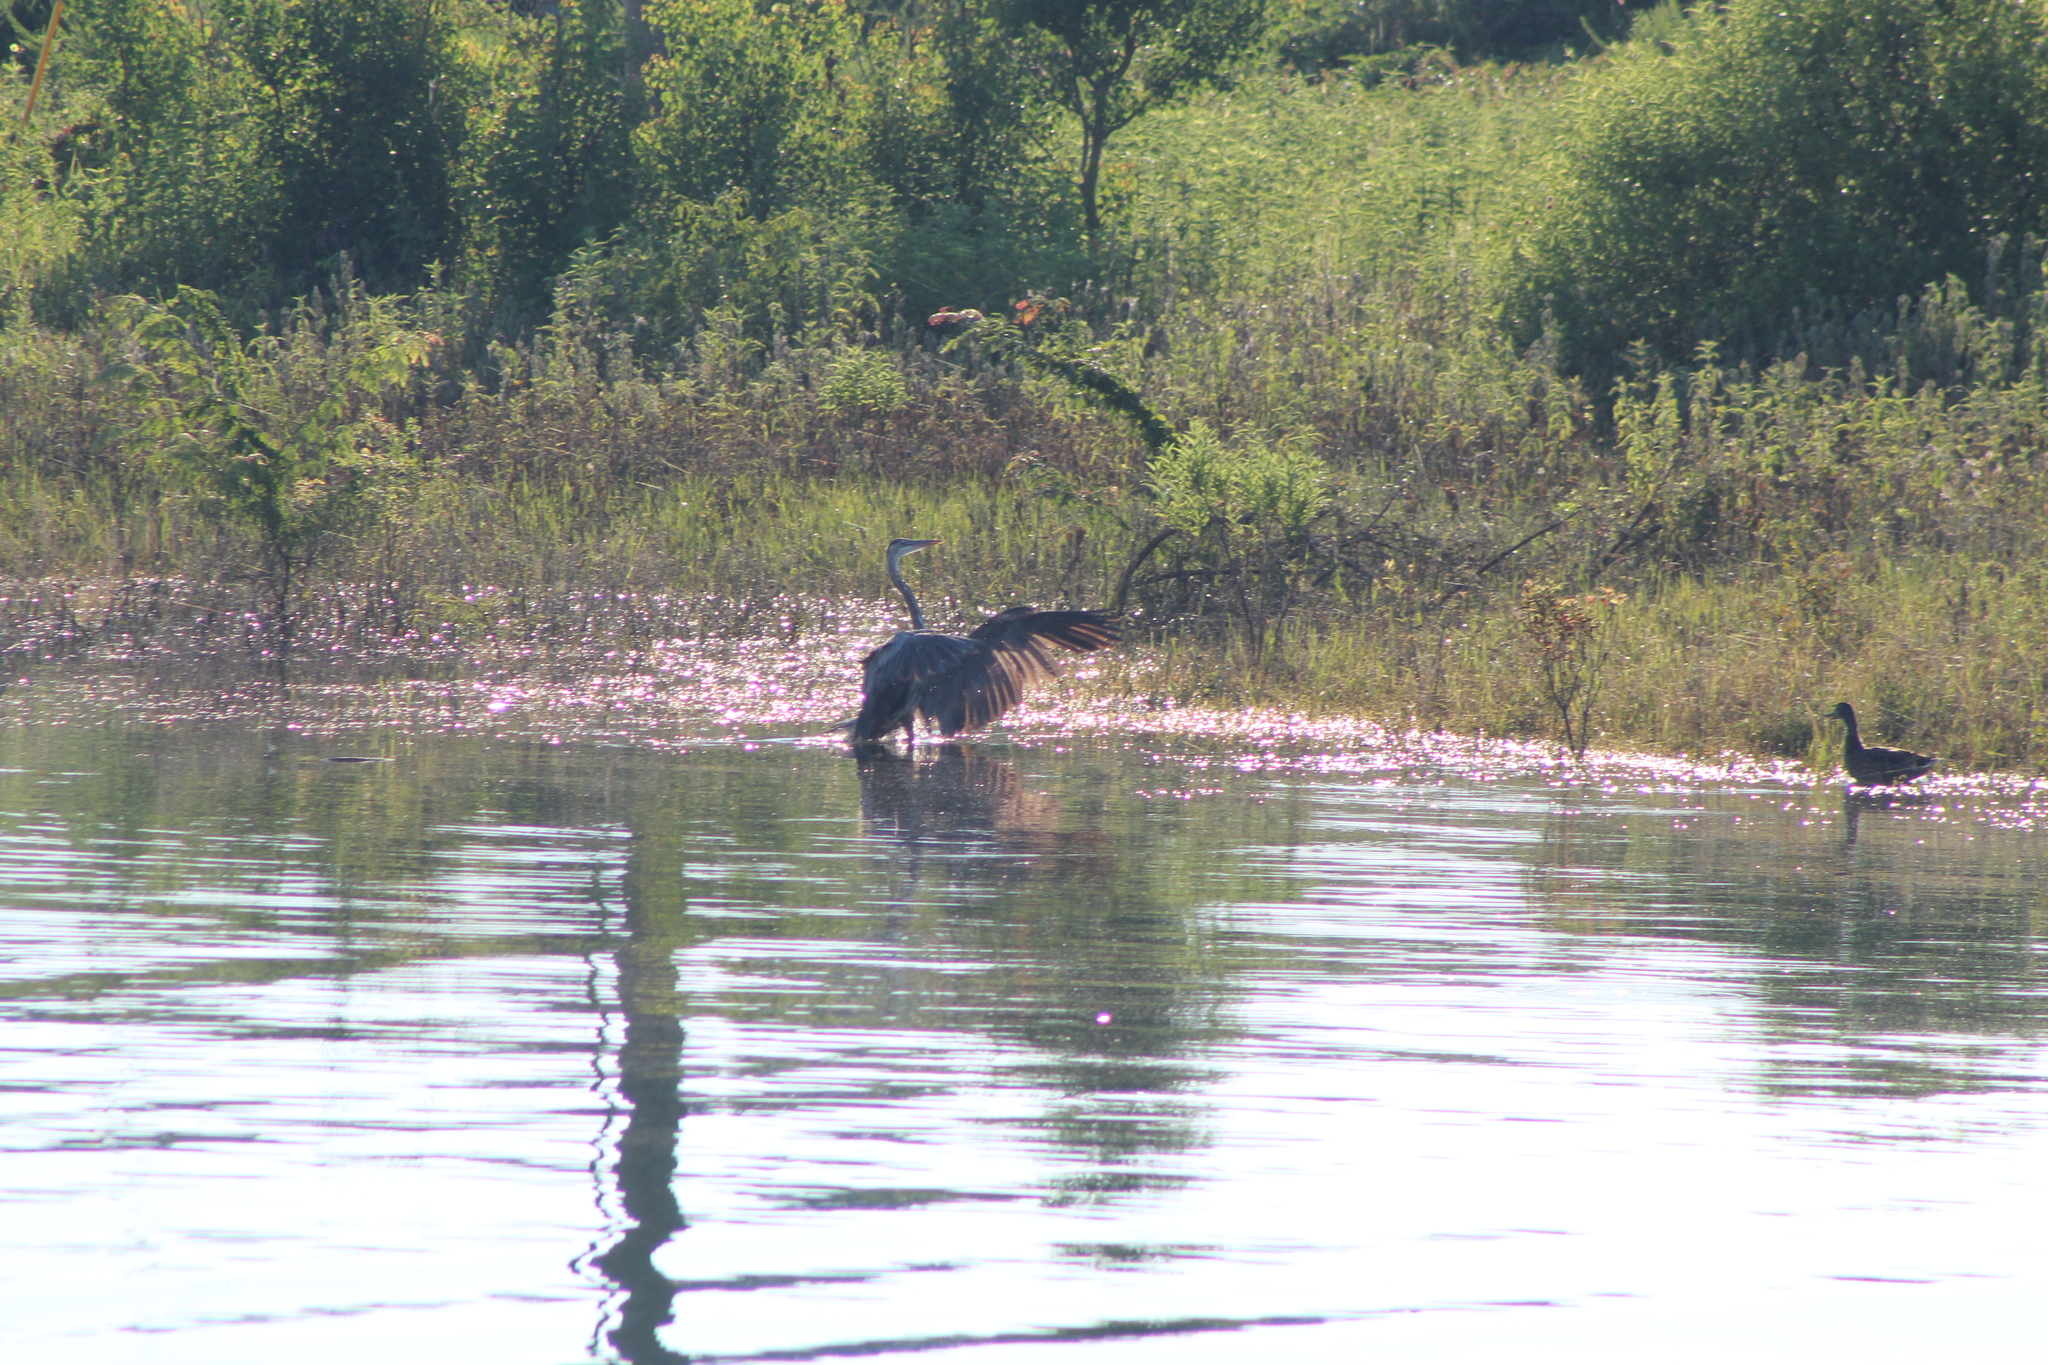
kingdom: Animalia
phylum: Chordata
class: Aves
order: Pelecaniformes
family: Ardeidae
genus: Ardea
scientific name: Ardea herodias
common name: Great blue heron
